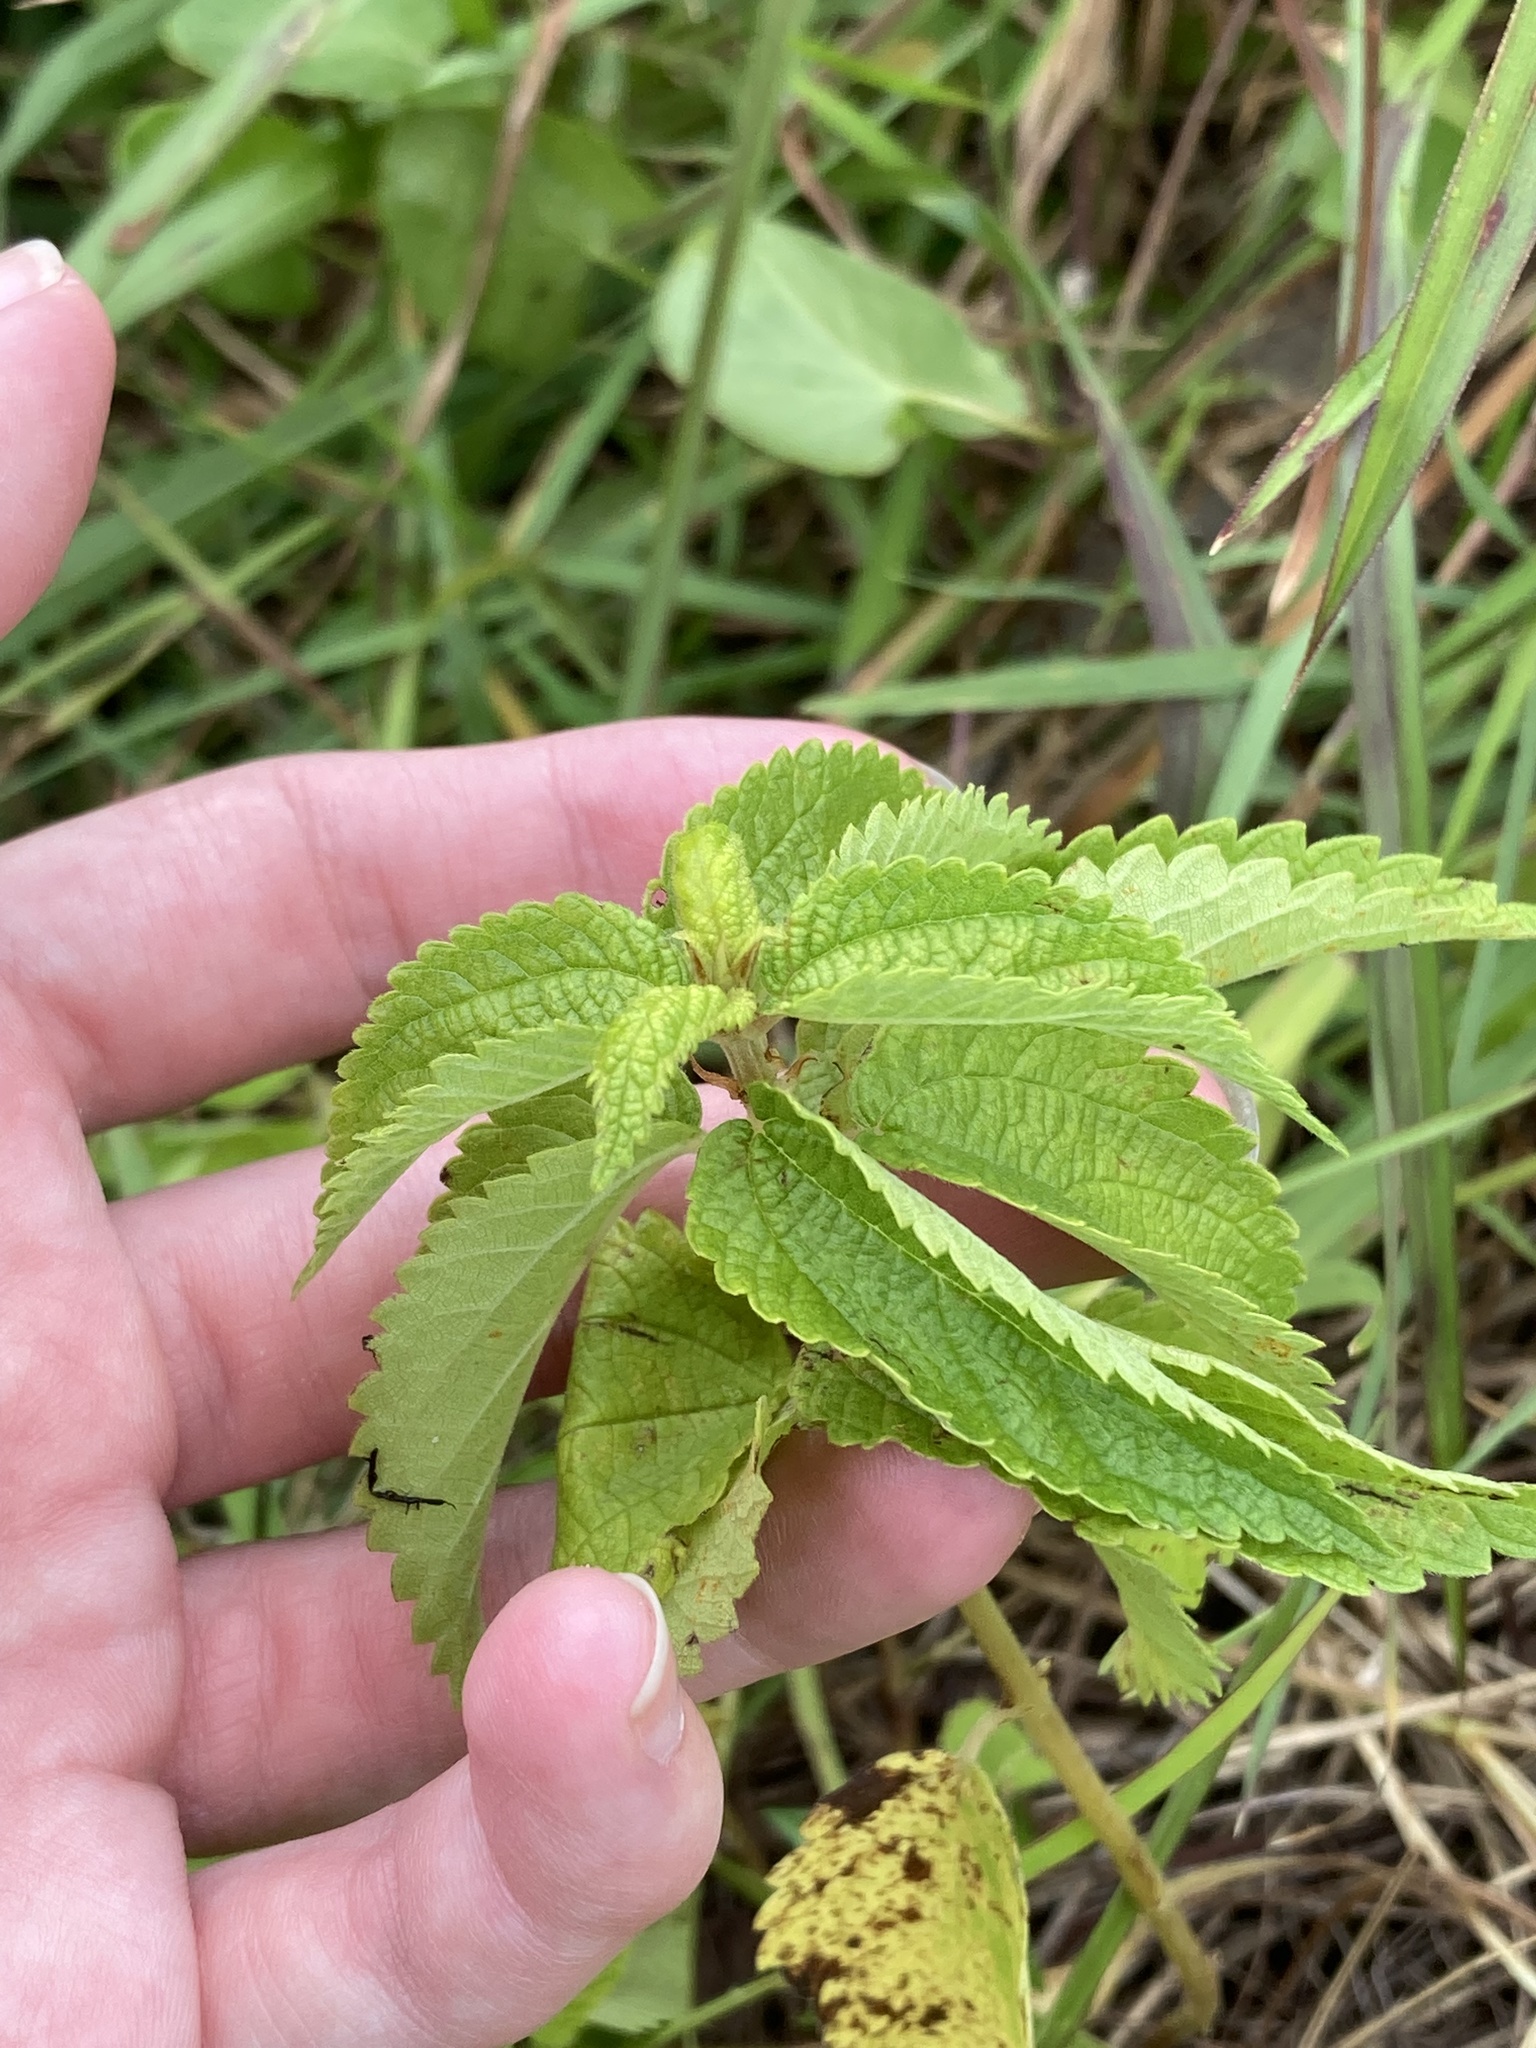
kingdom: Plantae
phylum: Tracheophyta
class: Magnoliopsida
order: Rosales
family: Urticaceae
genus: Boehmeria
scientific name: Boehmeria cylindrica
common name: Bog-hemp
